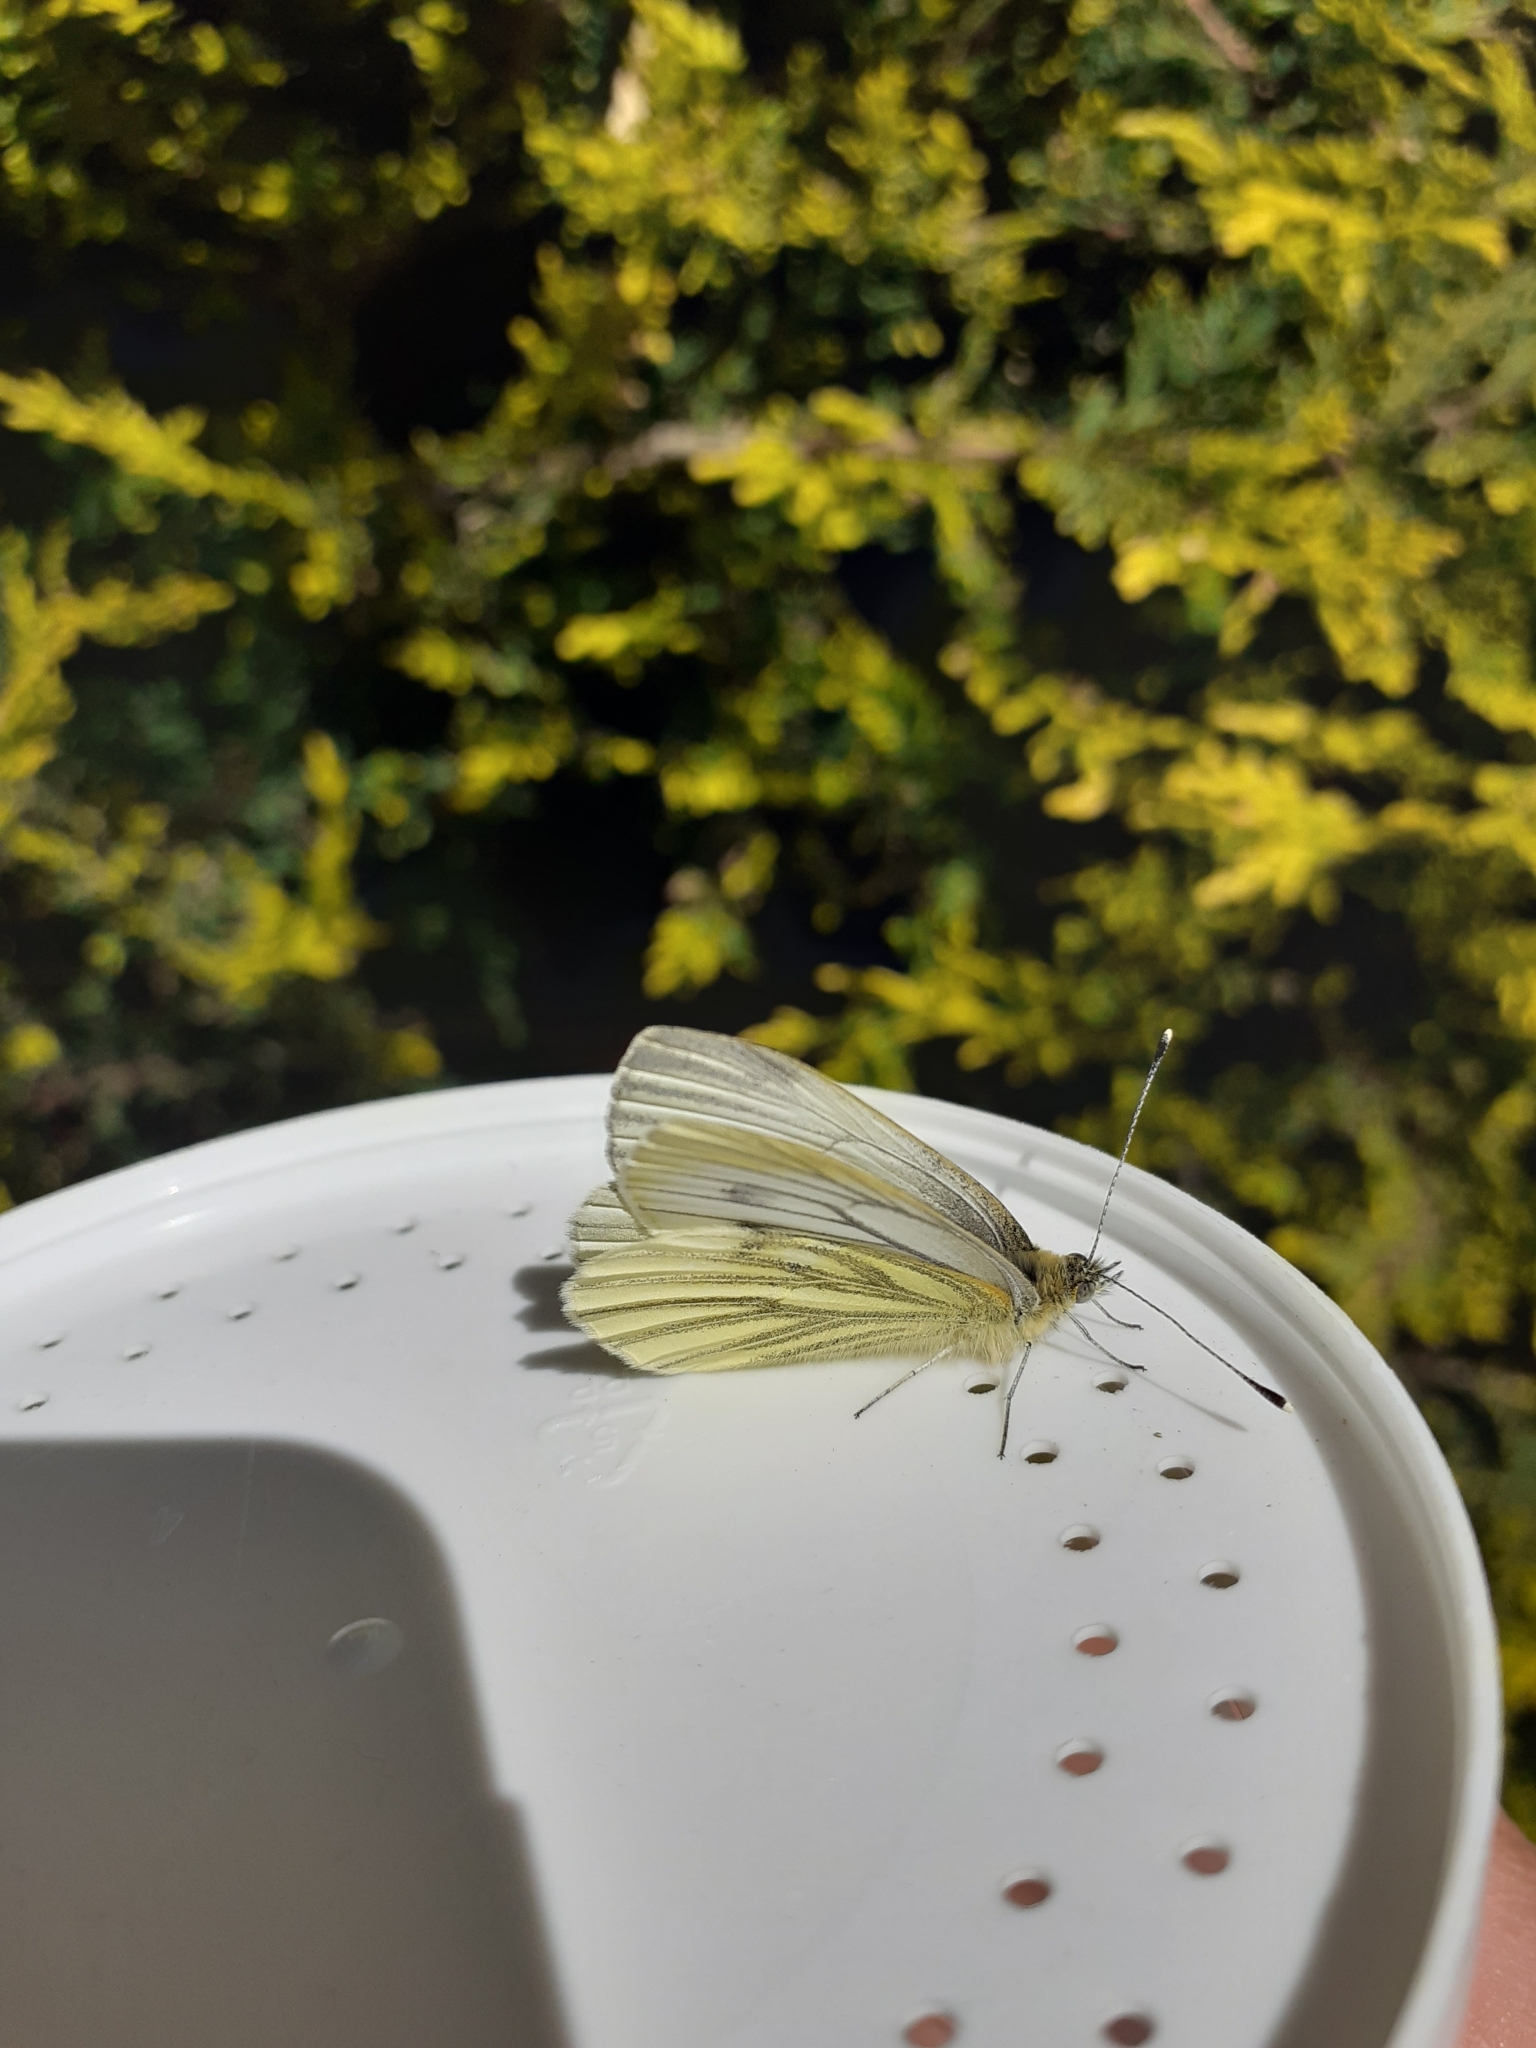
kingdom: Animalia
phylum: Arthropoda
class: Insecta
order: Lepidoptera
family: Pieridae
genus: Pieris
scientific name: Pieris napi
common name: Green-veined white
